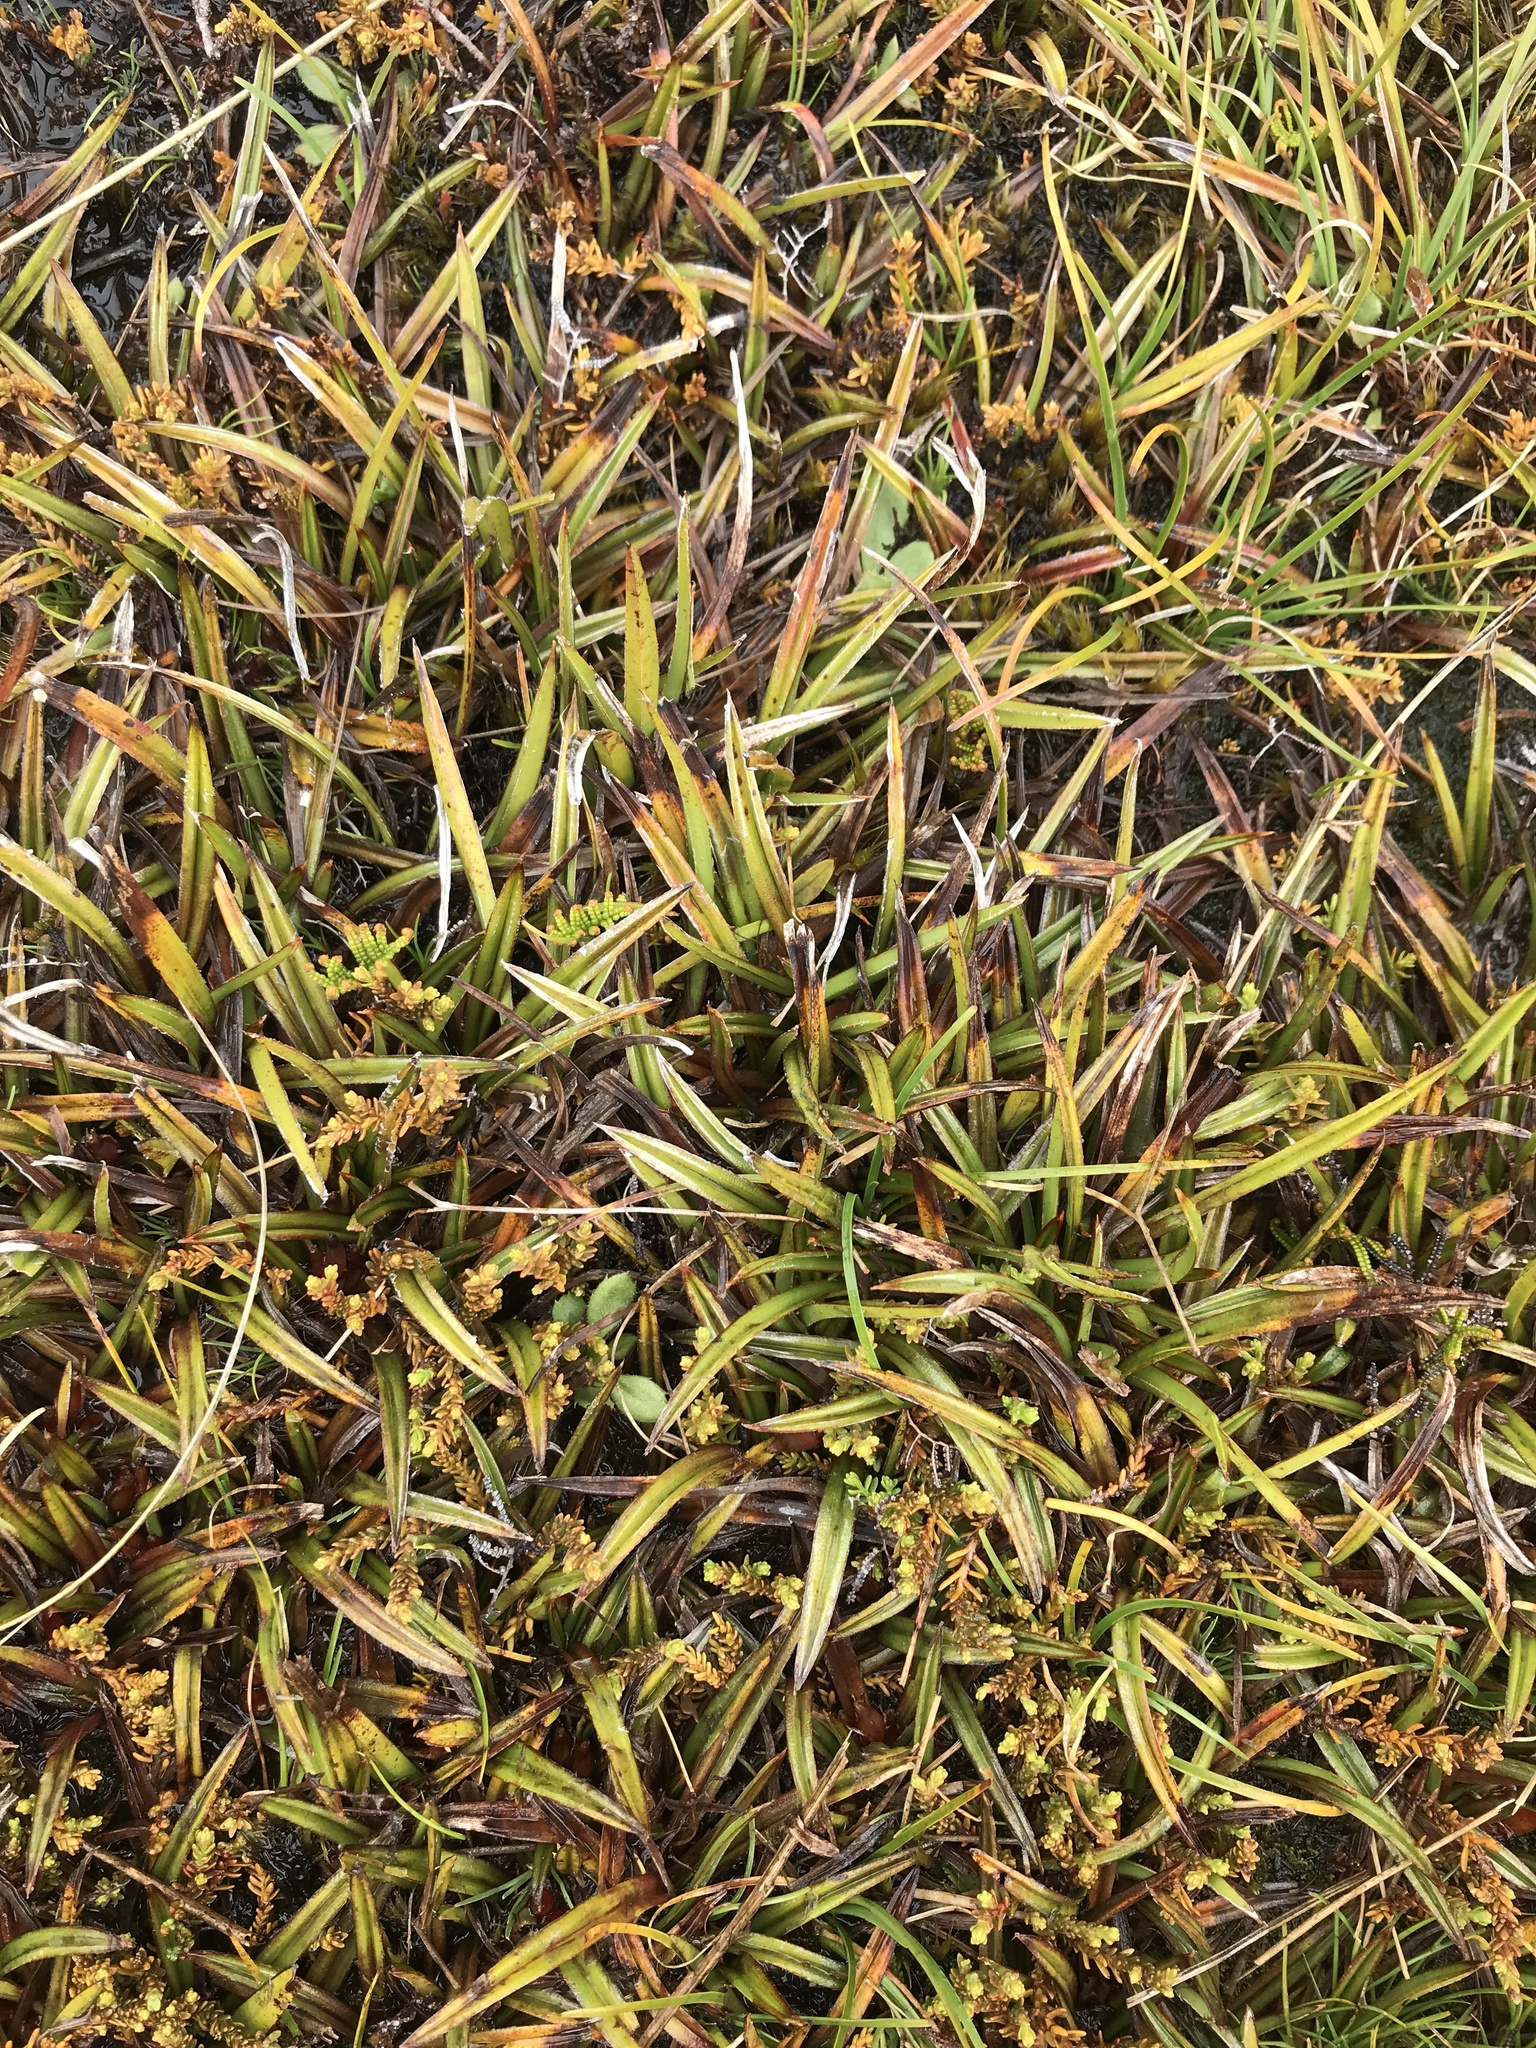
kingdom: Plantae
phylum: Tracheophyta
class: Liliopsida
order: Asparagales
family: Asteliaceae
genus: Astelia
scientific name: Astelia linearis
